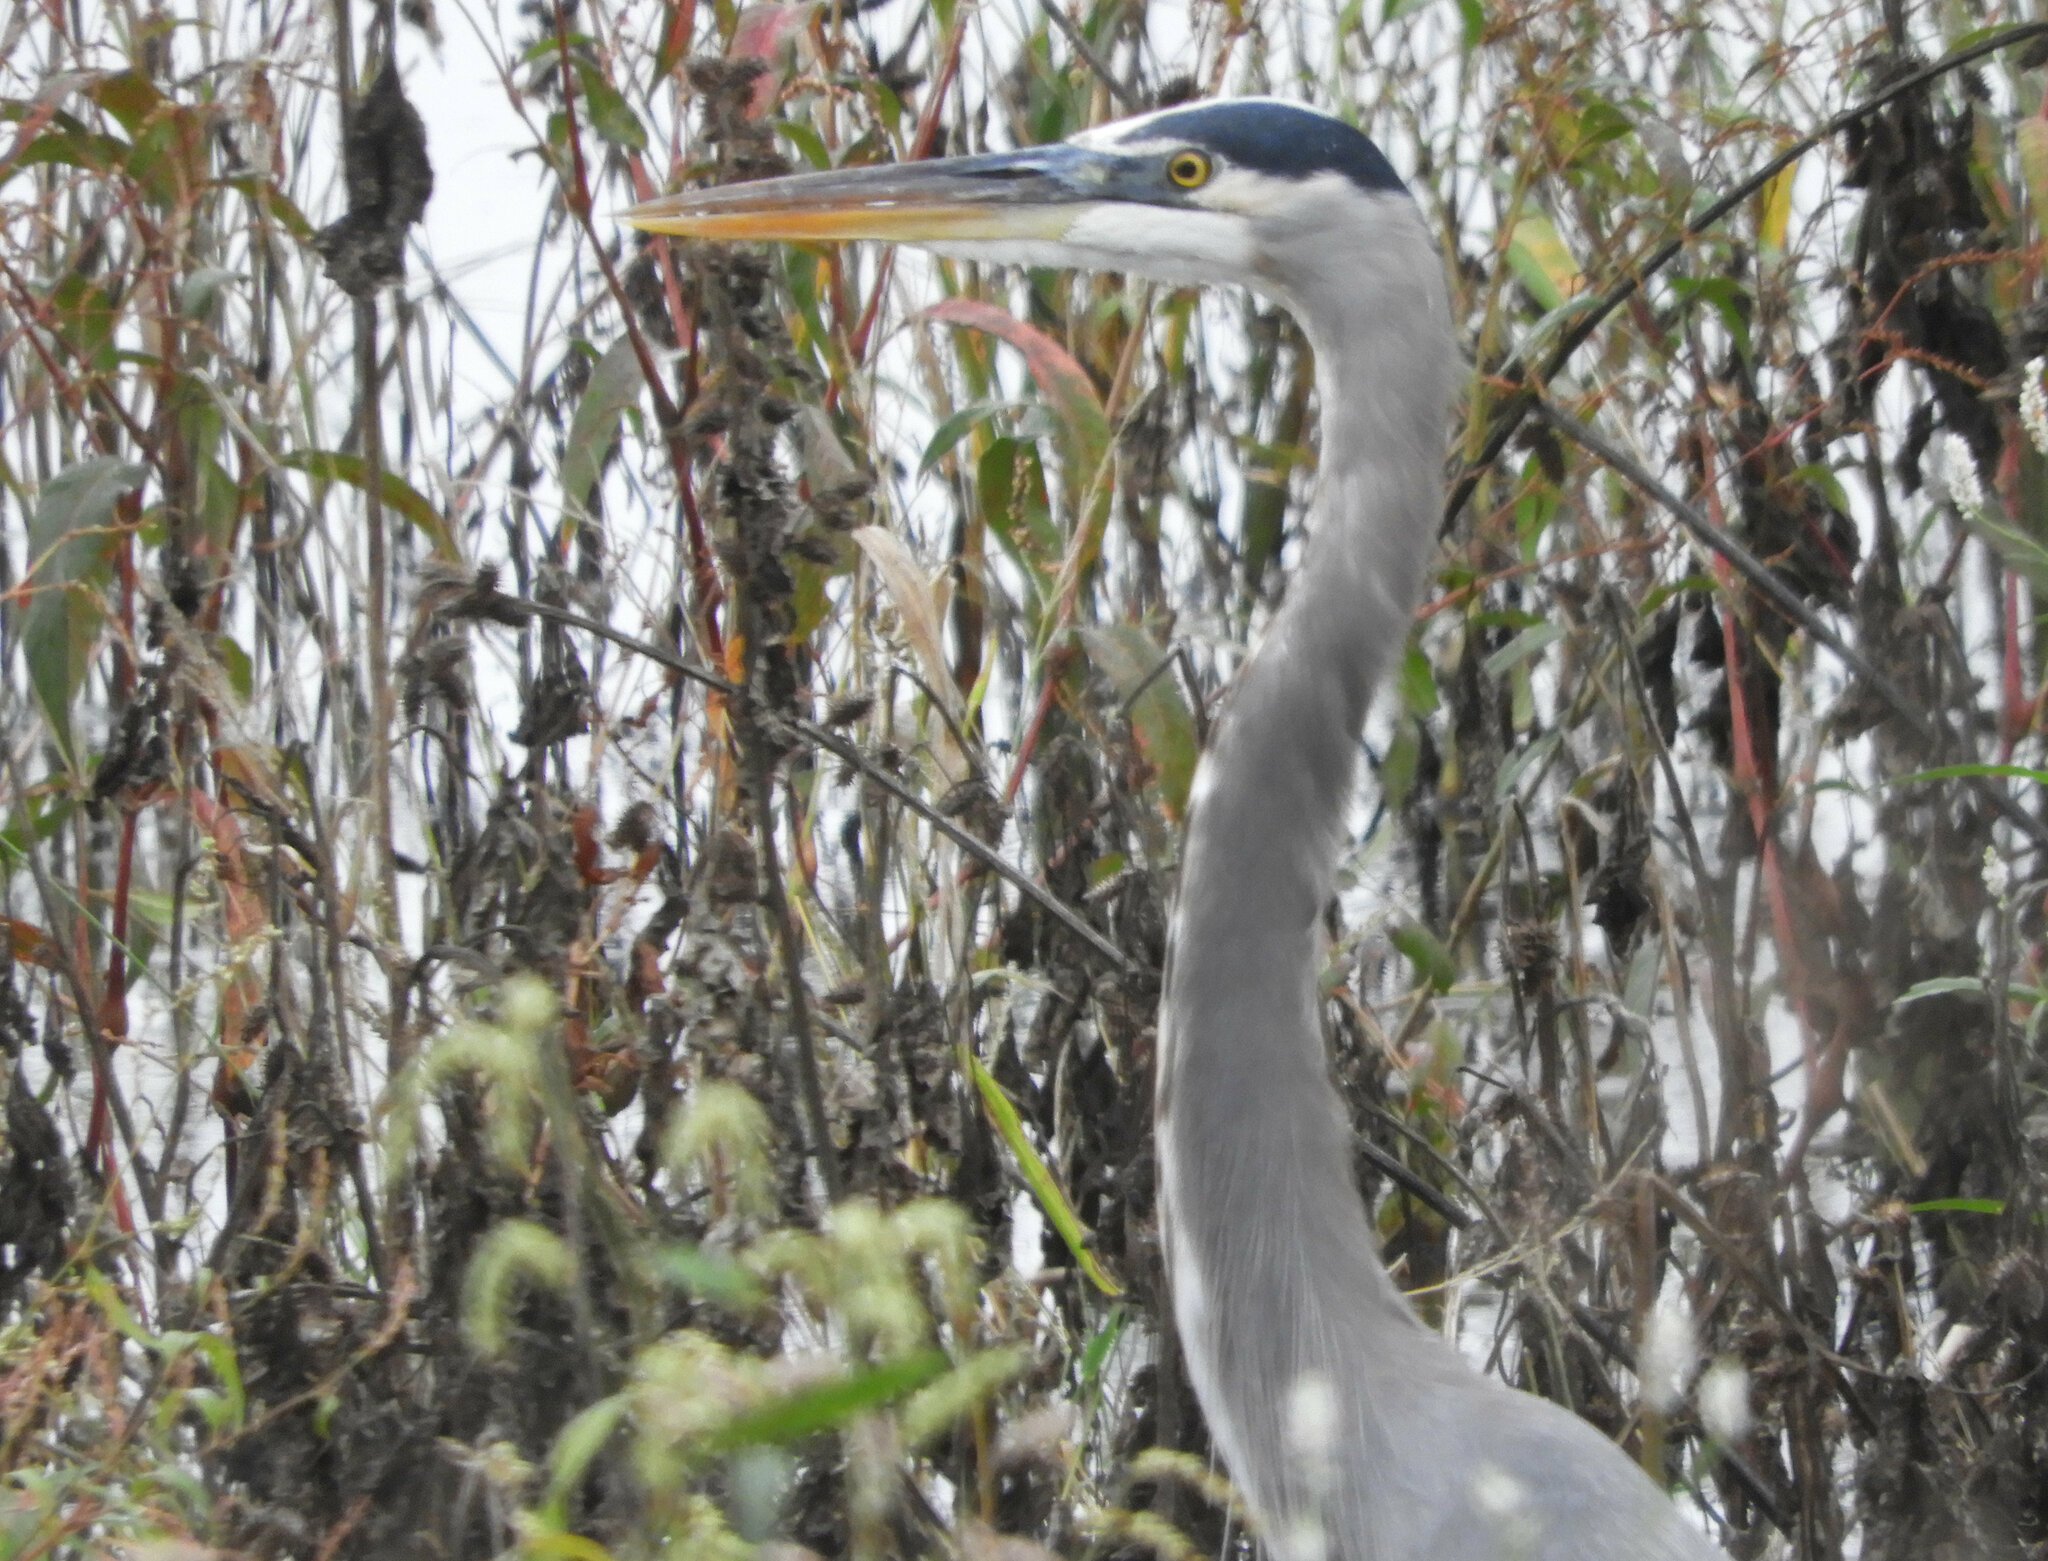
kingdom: Animalia
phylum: Chordata
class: Aves
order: Pelecaniformes
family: Ardeidae
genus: Ardea
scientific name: Ardea herodias
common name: Great blue heron
